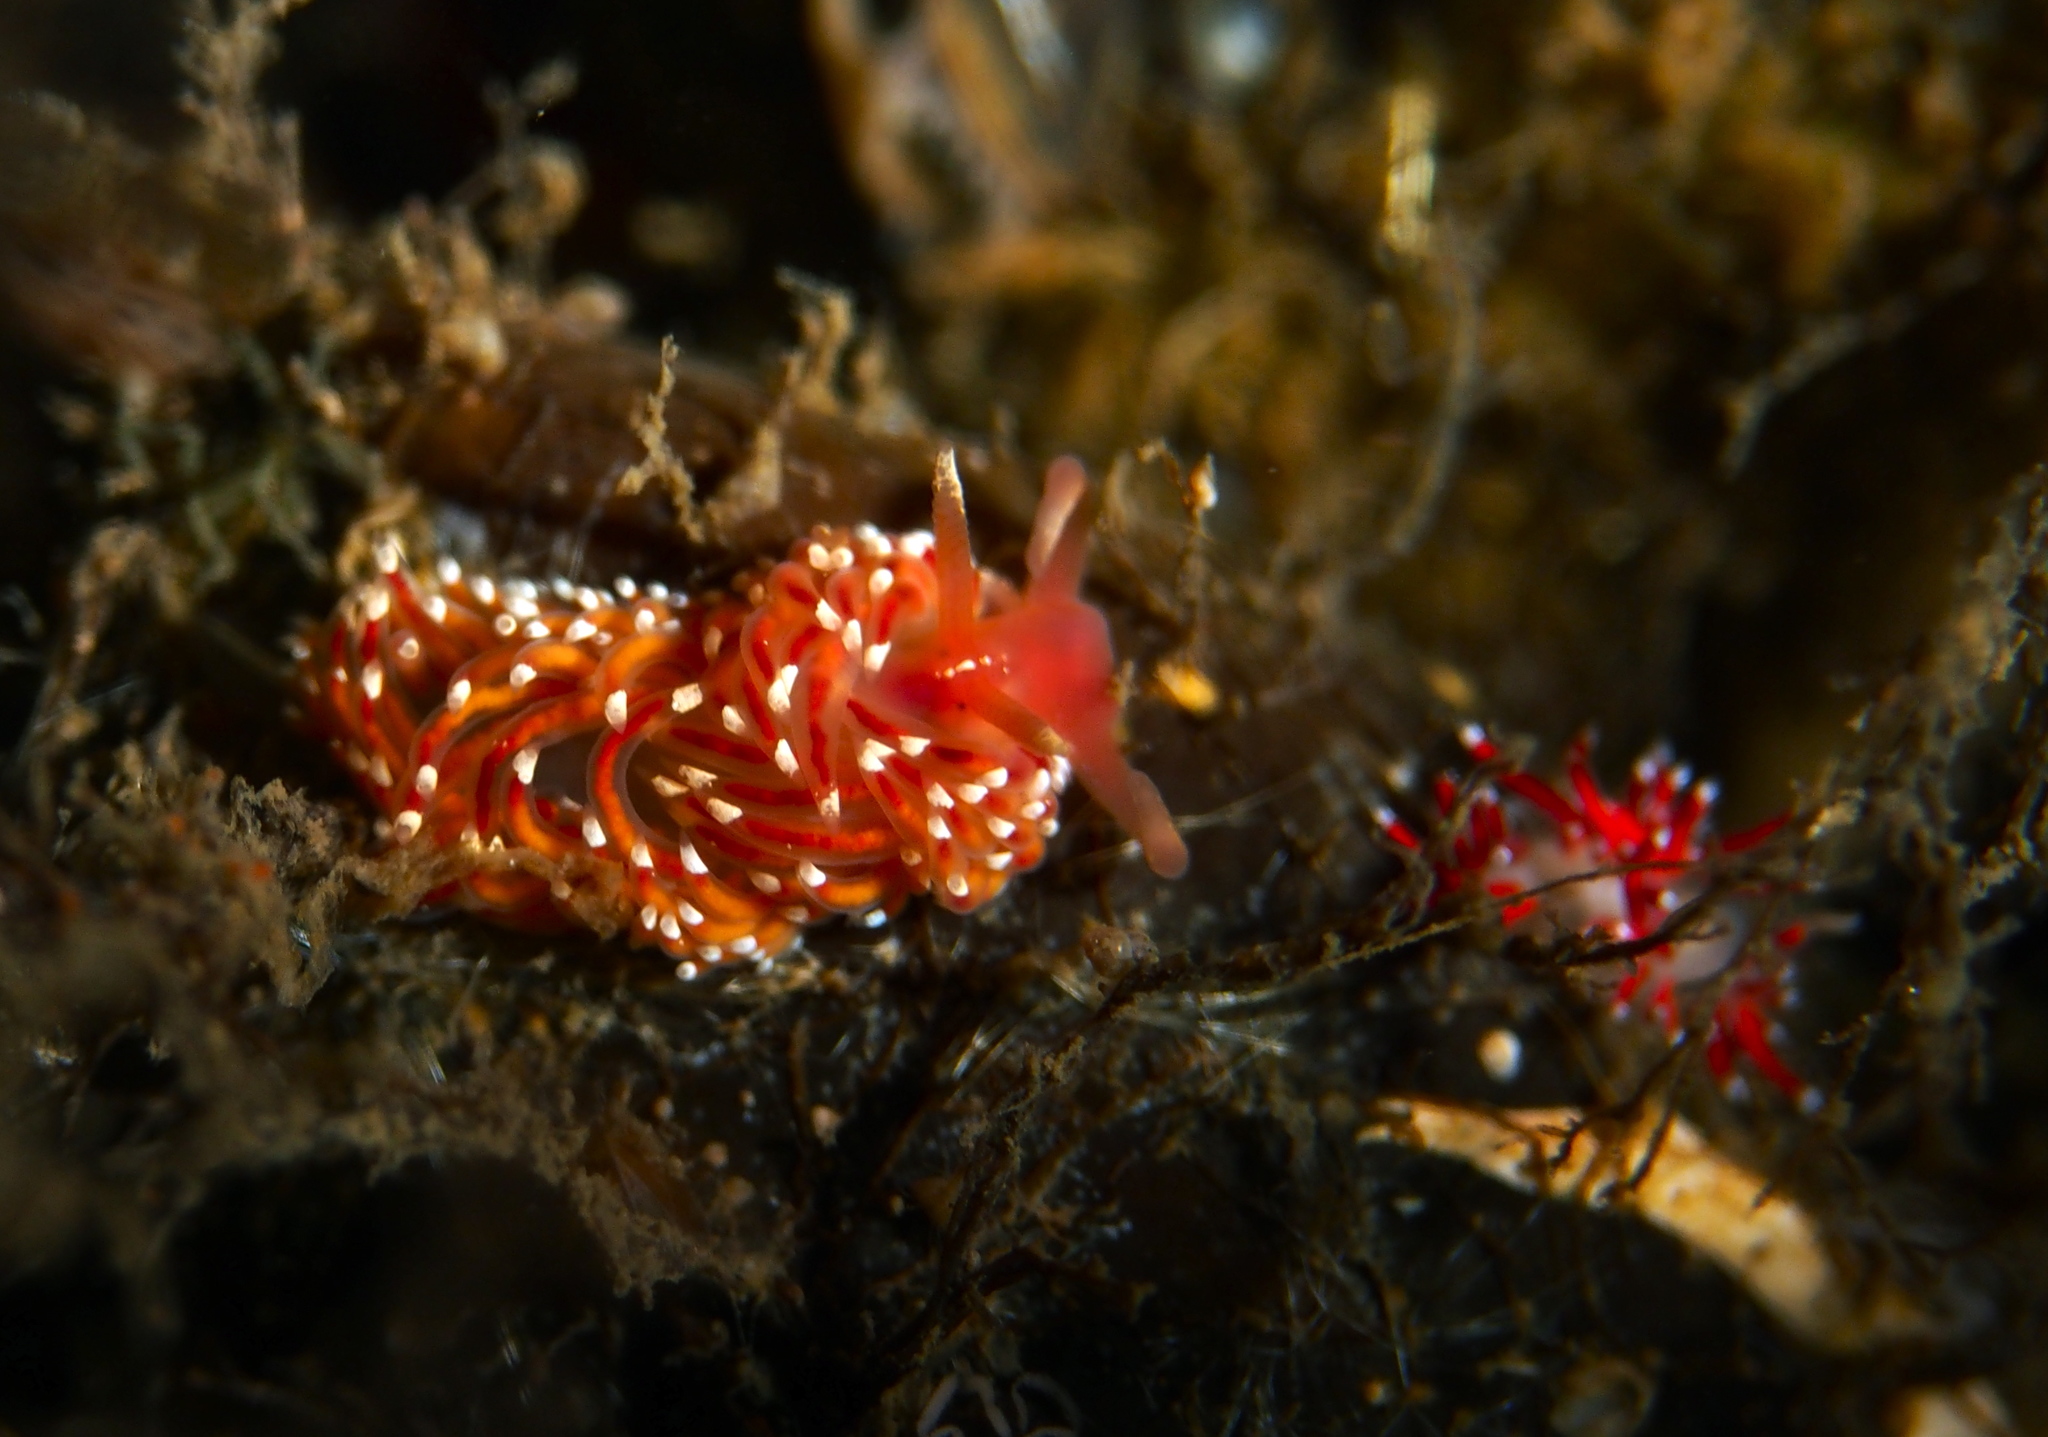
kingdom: Animalia
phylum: Mollusca
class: Gastropoda
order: Nudibranchia
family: Facelinidae
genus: Facelina
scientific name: Facelina bostoniensis
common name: Boston facelina
